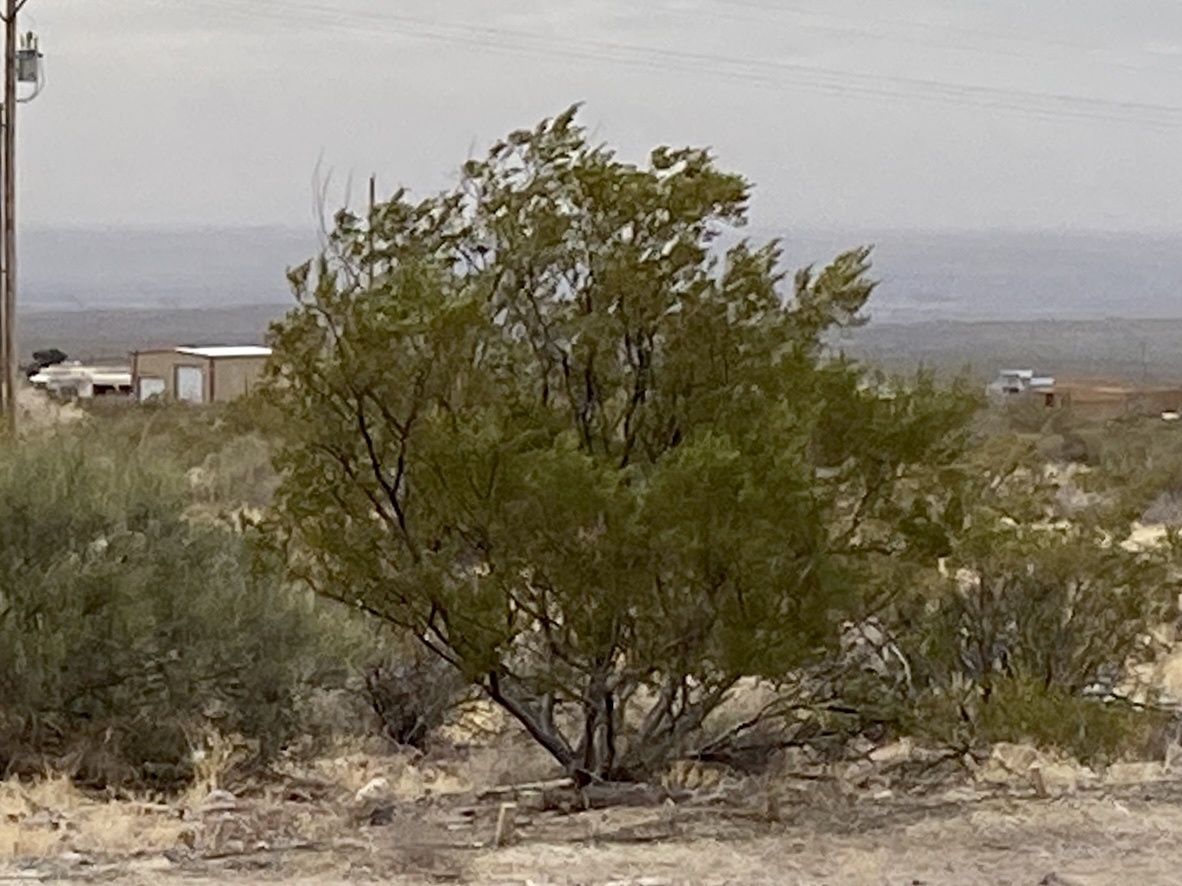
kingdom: Plantae
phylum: Tracheophyta
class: Magnoliopsida
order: Zygophyllales
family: Zygophyllaceae
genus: Larrea
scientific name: Larrea tridentata
